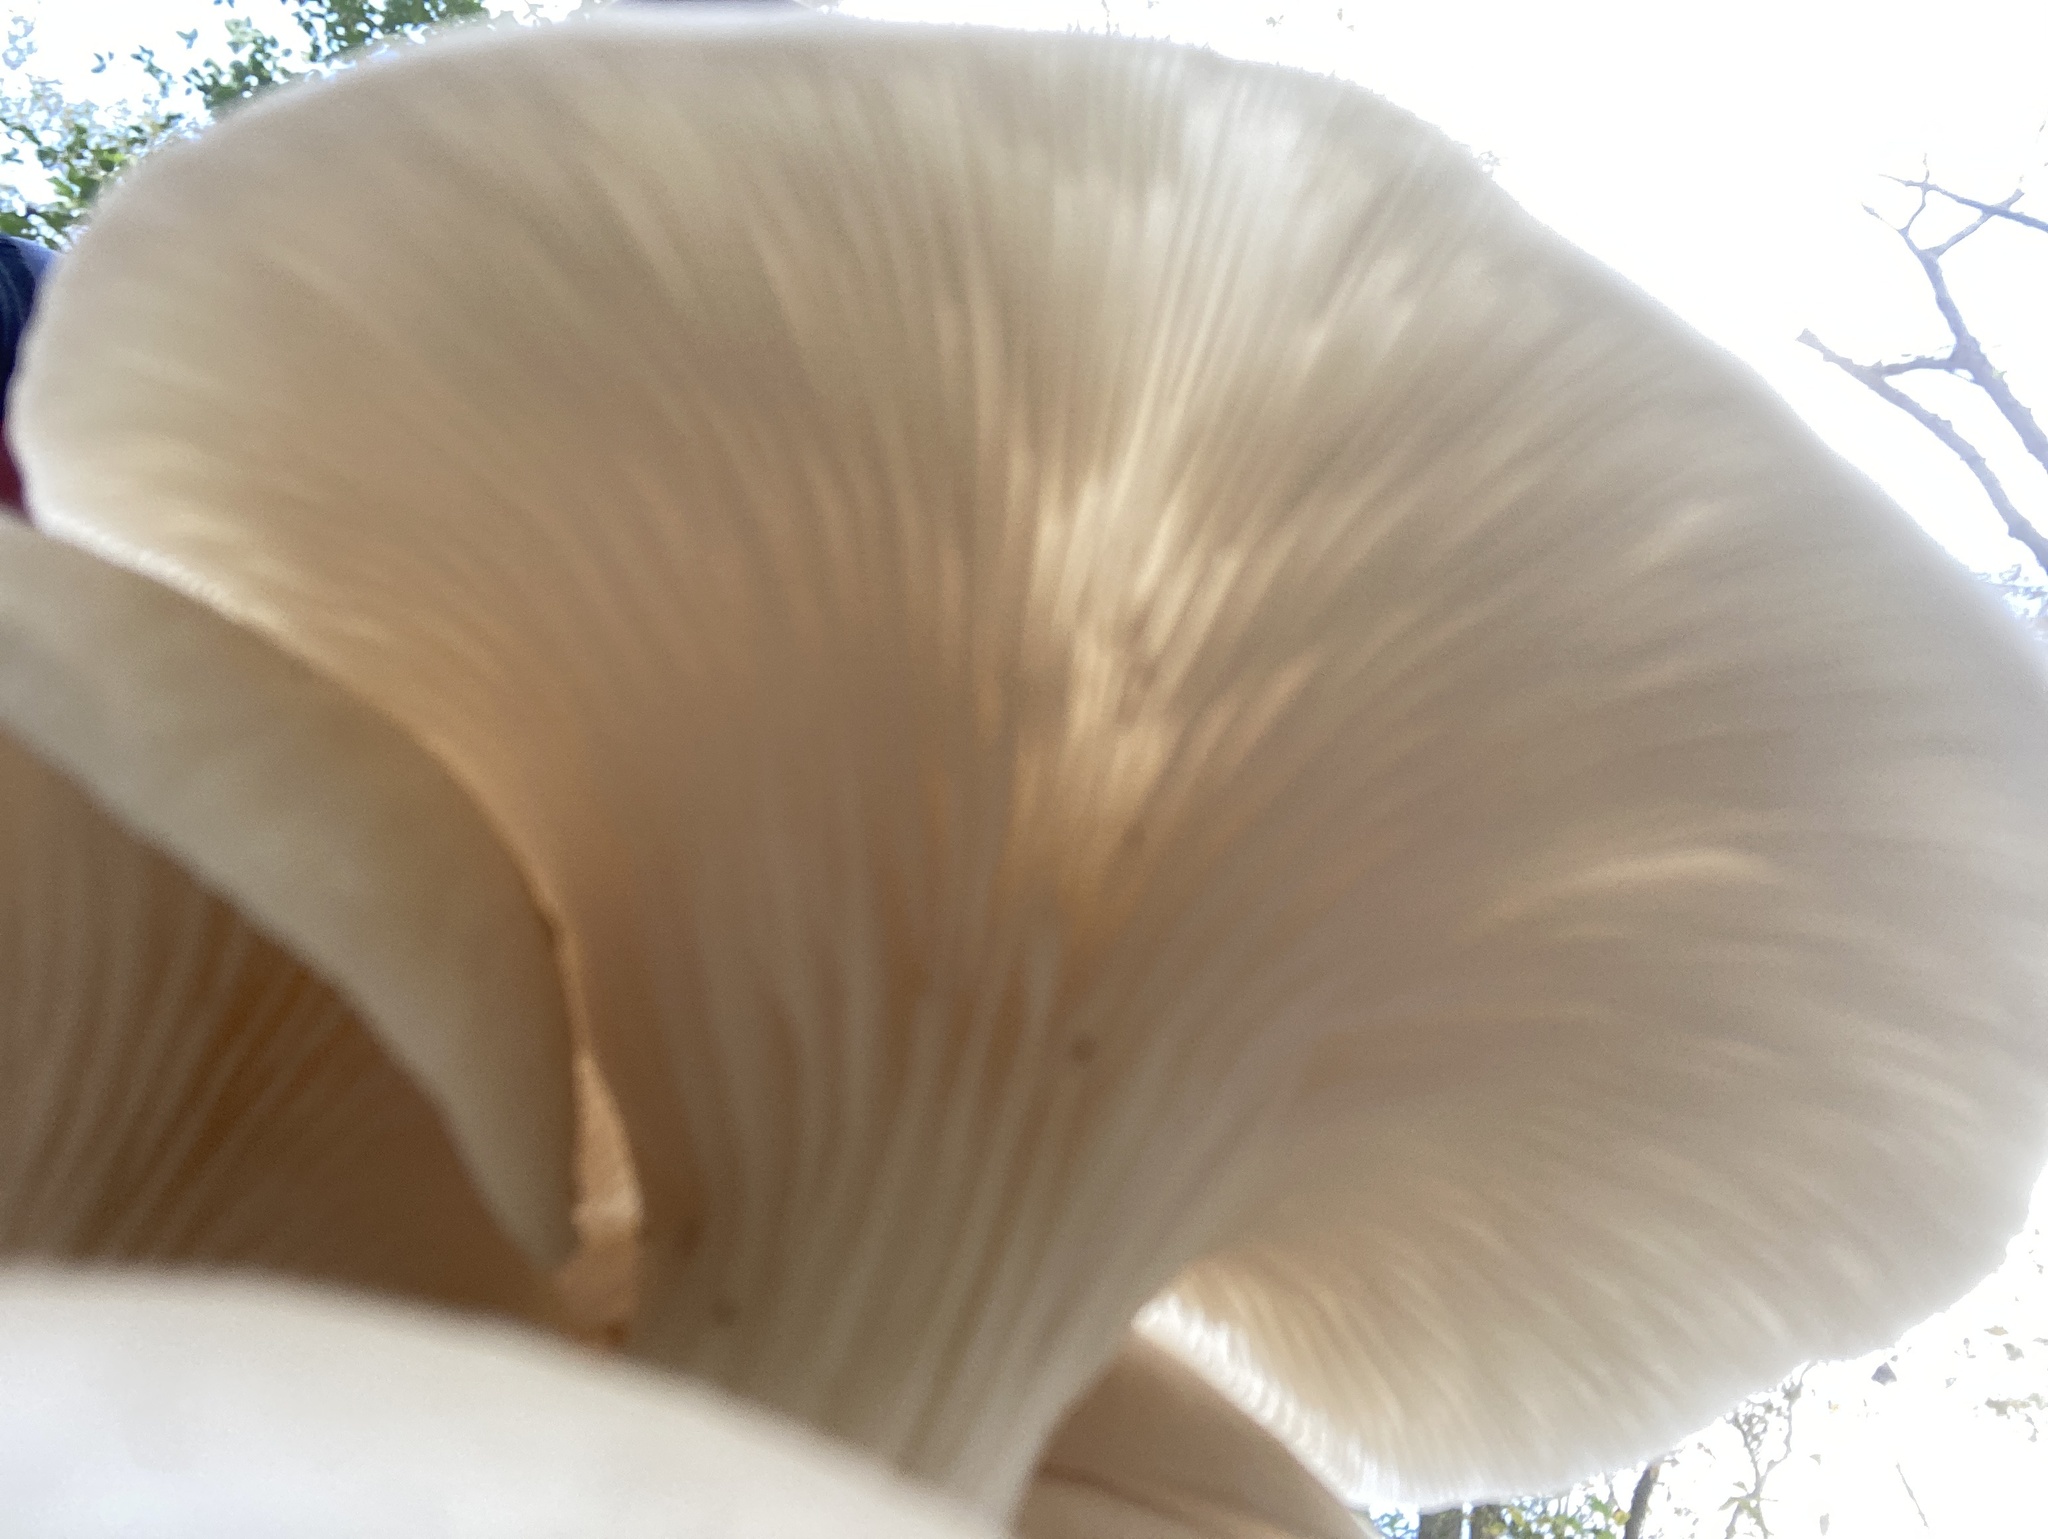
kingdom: Fungi
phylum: Basidiomycota
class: Agaricomycetes
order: Agaricales
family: Pleurotaceae
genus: Pleurotus
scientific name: Pleurotus ostreatus
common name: Oyster mushroom
